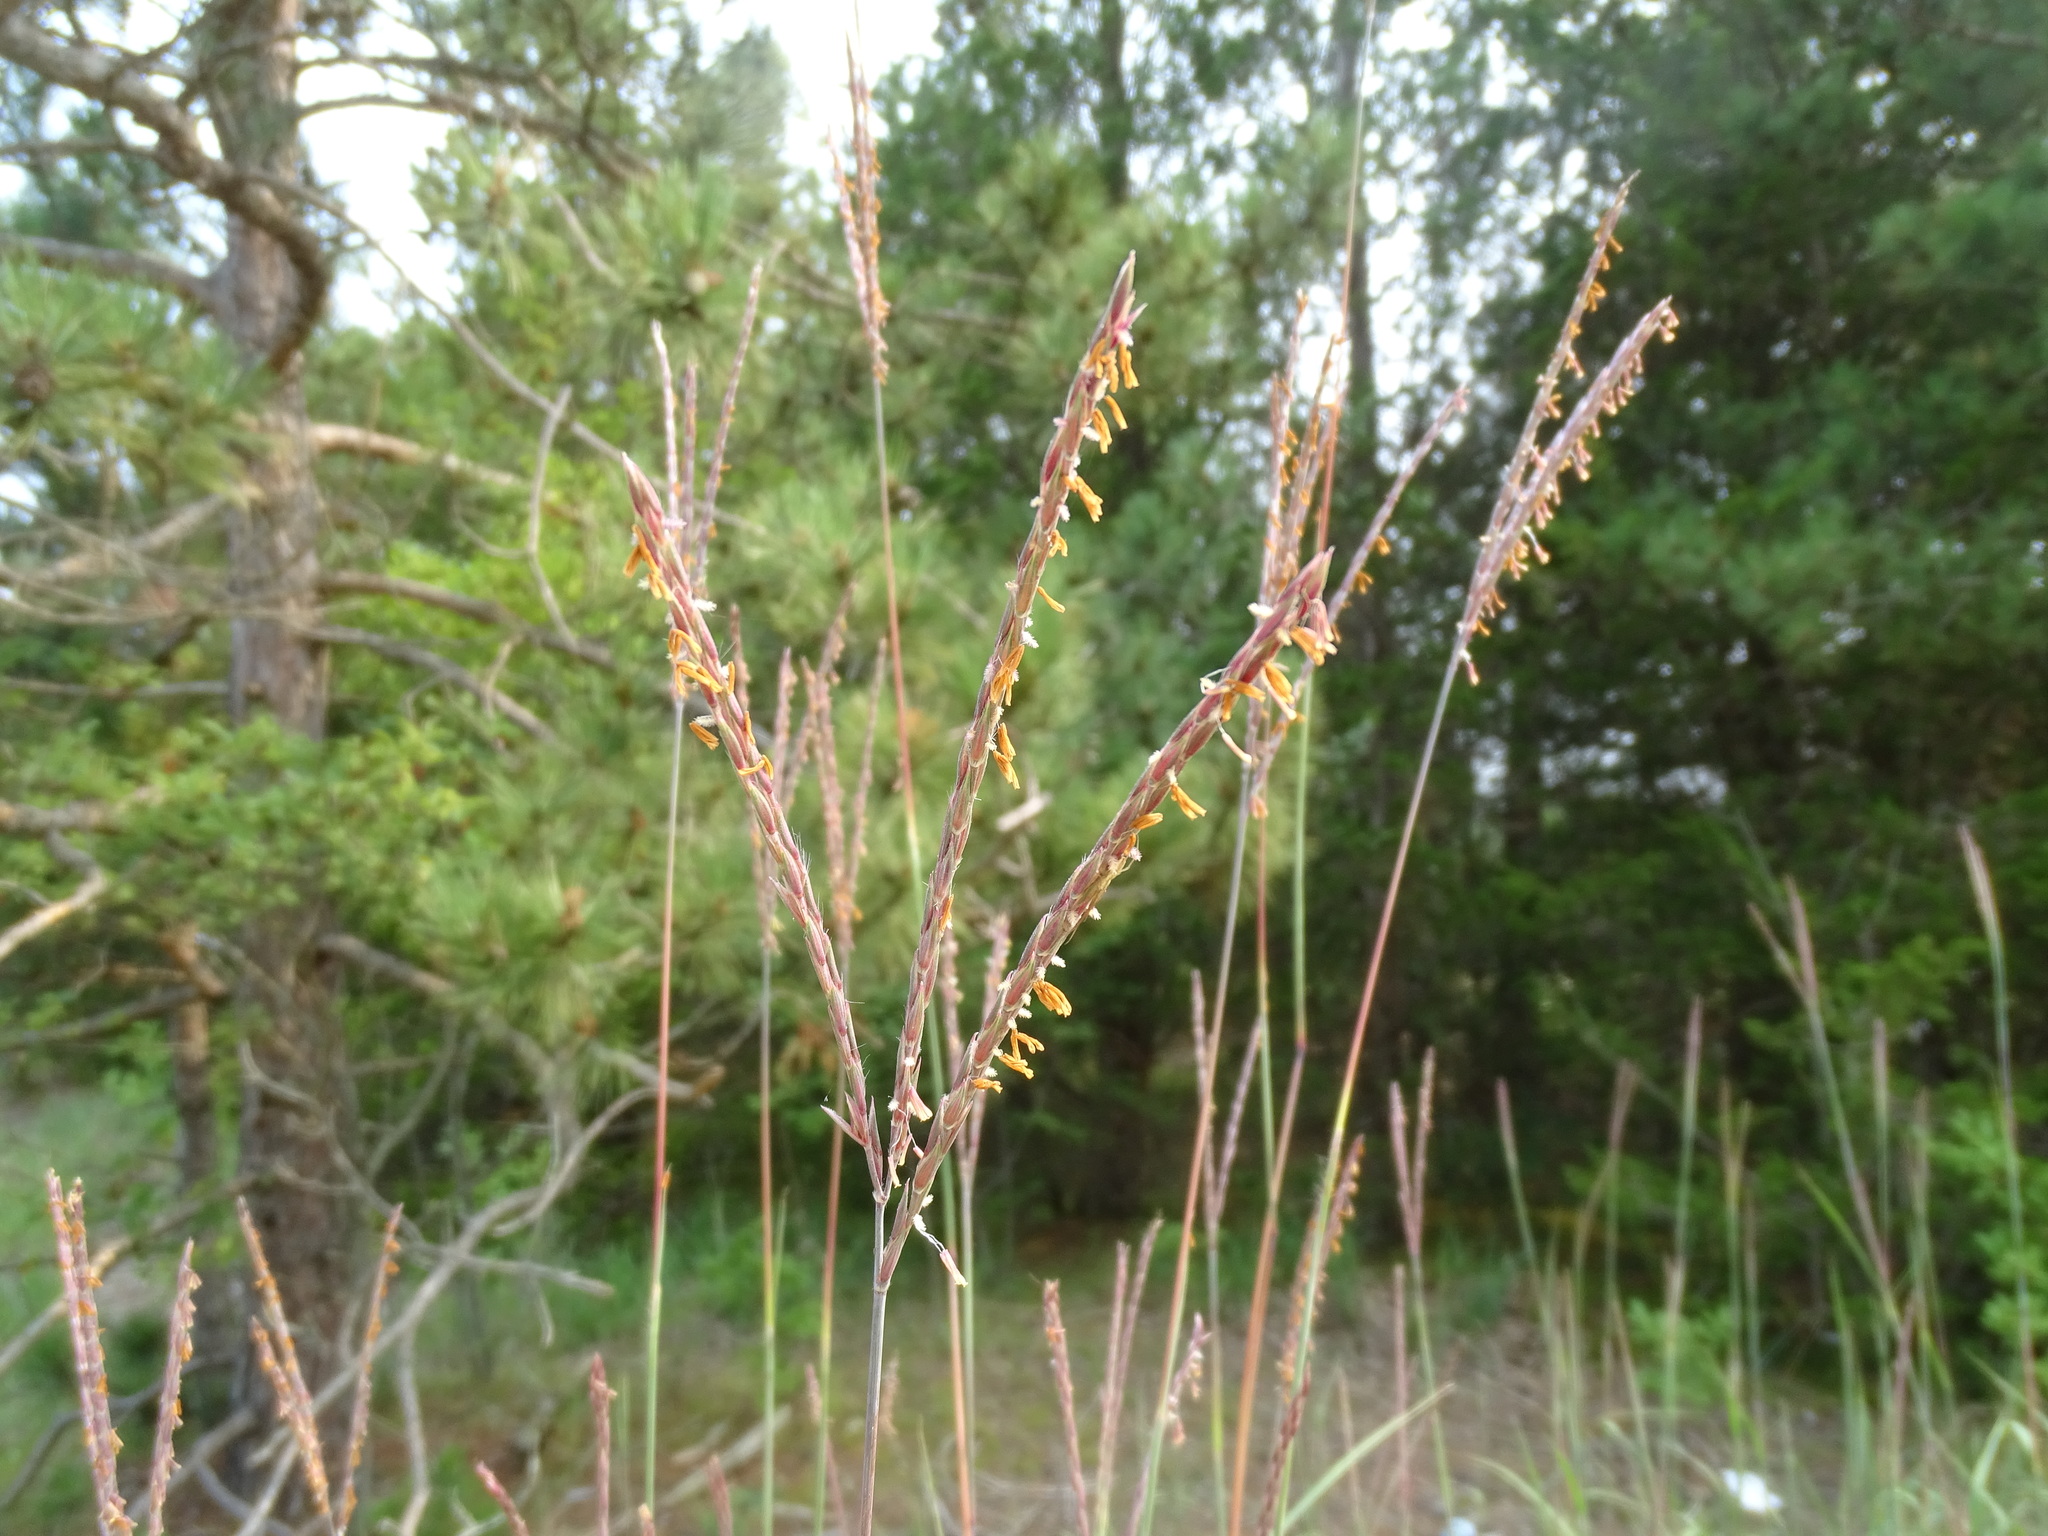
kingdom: Plantae
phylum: Tracheophyta
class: Liliopsida
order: Poales
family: Poaceae
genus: Andropogon
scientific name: Andropogon gerardi
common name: Big bluestem
